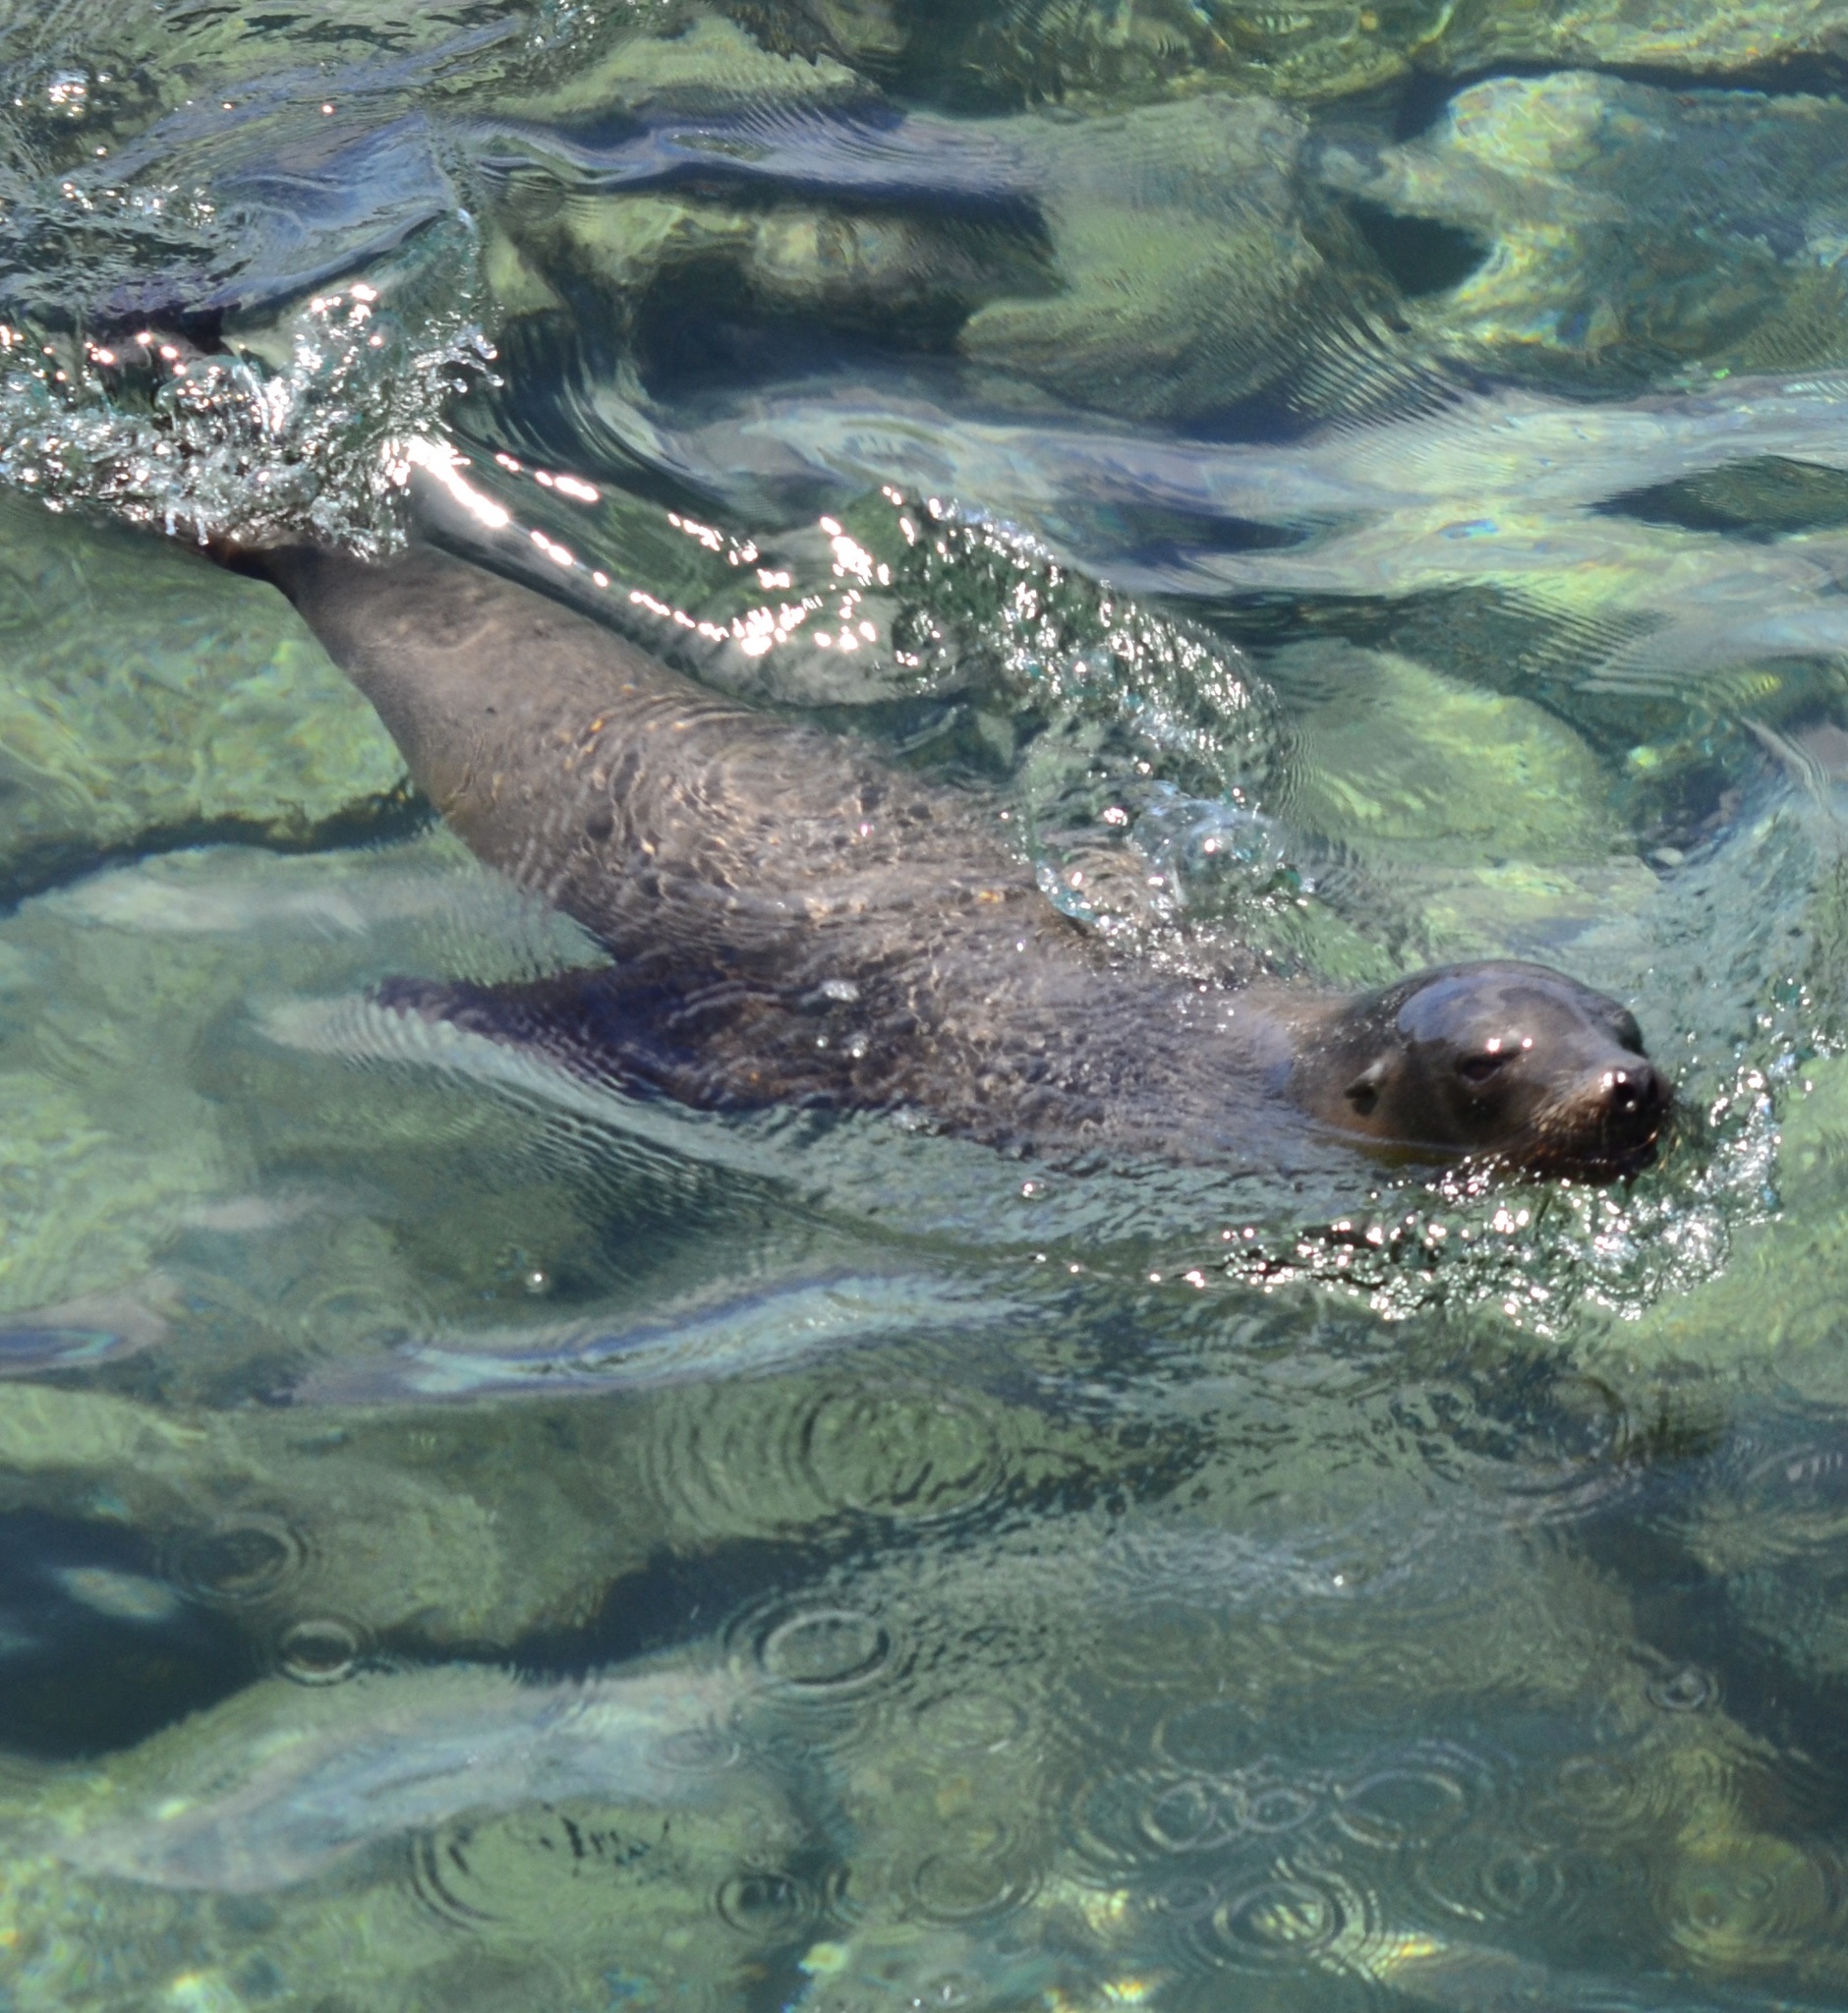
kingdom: Animalia
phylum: Chordata
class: Mammalia
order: Carnivora
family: Otariidae
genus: Zalophus
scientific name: Zalophus wollebaeki
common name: Galapagos sea lion
